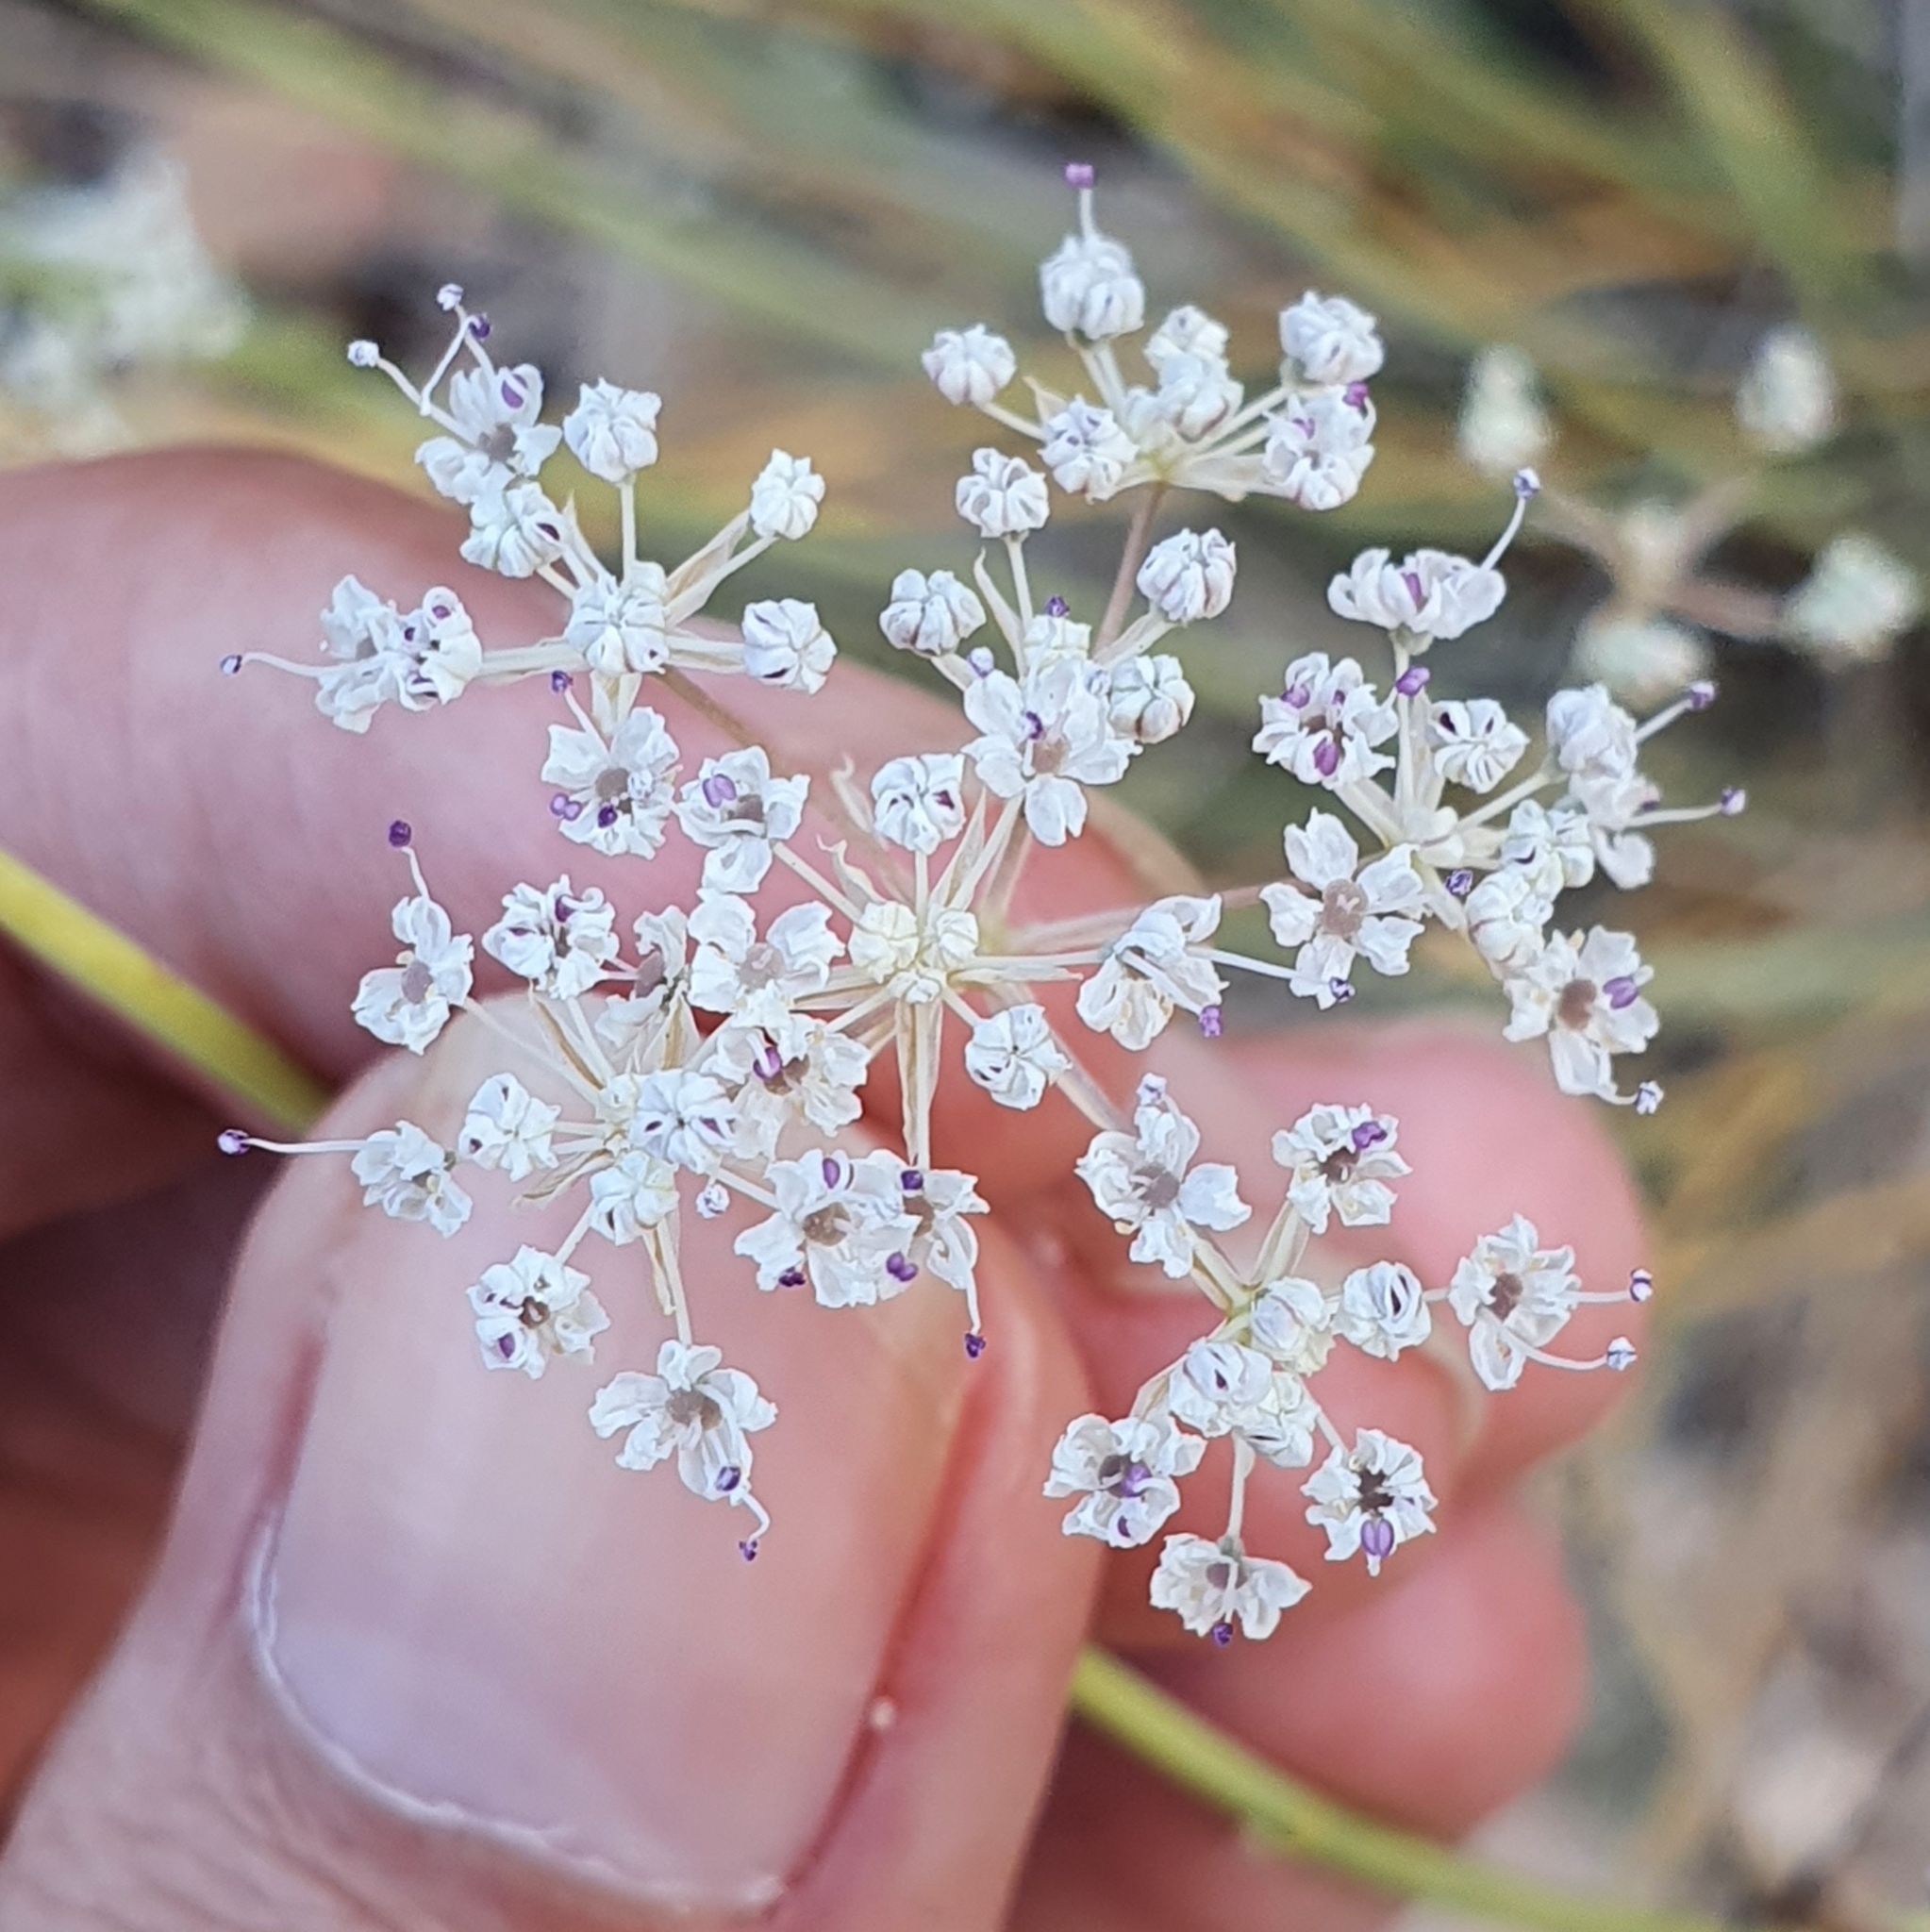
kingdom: Plantae
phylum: Tracheophyta
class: Magnoliopsida
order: Apiales
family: Apiaceae
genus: Deverra
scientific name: Deverra scoparia
